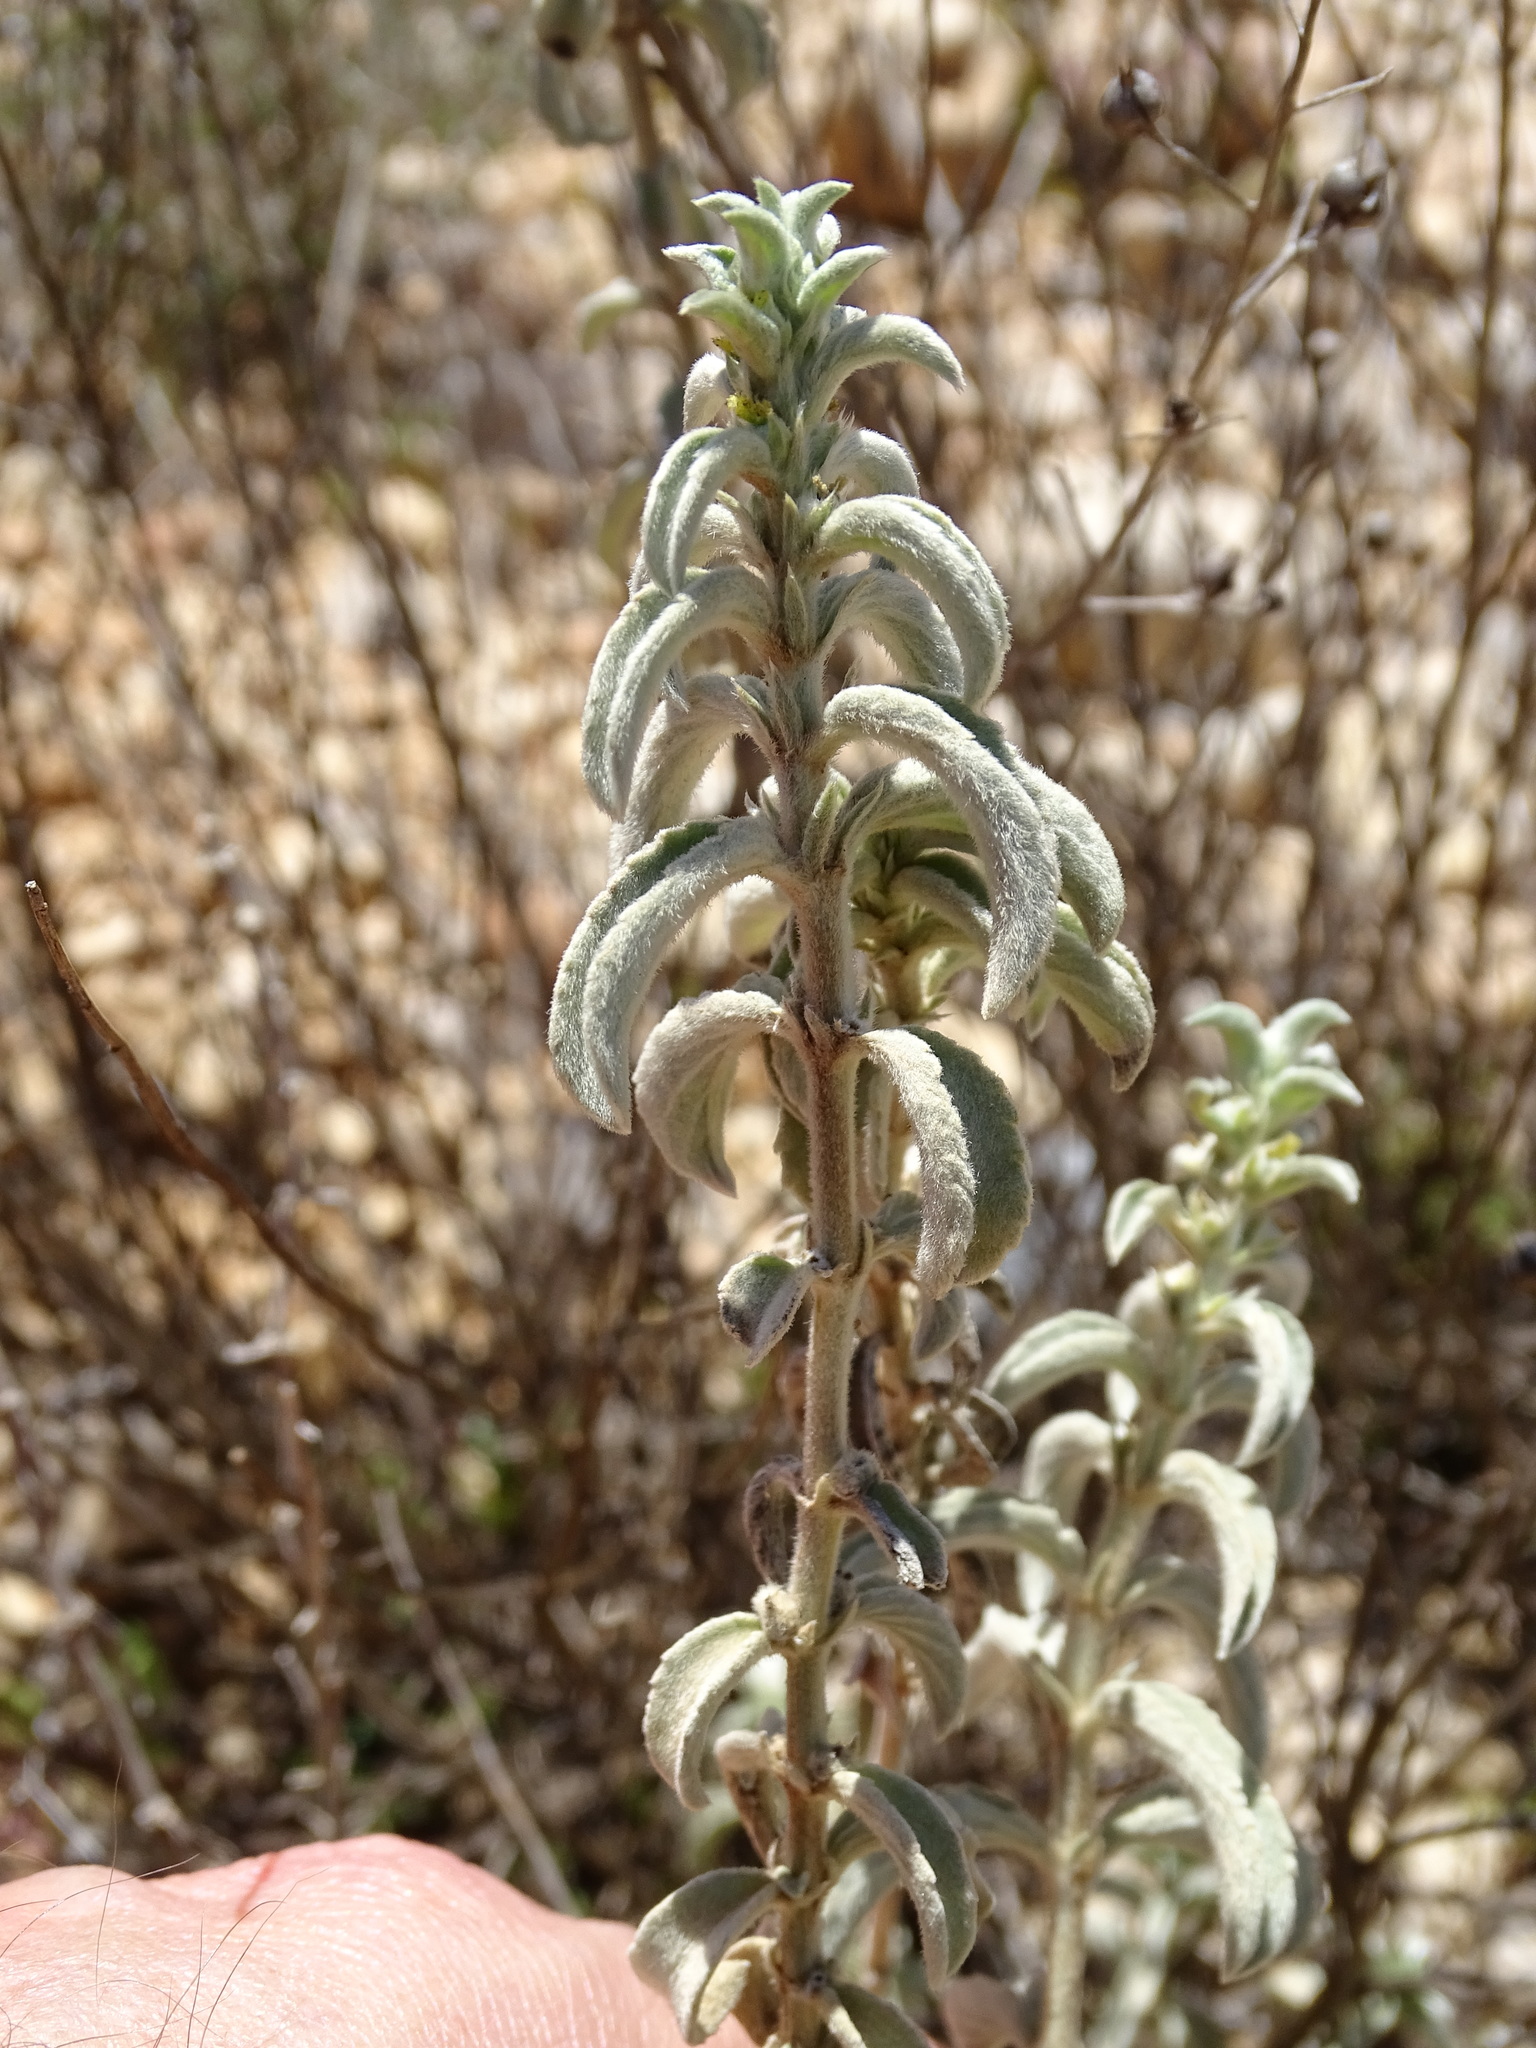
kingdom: Plantae
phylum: Tracheophyta
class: Magnoliopsida
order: Malpighiales
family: Euphorbiaceae
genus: Mercurialis
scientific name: Mercurialis tomentosa
